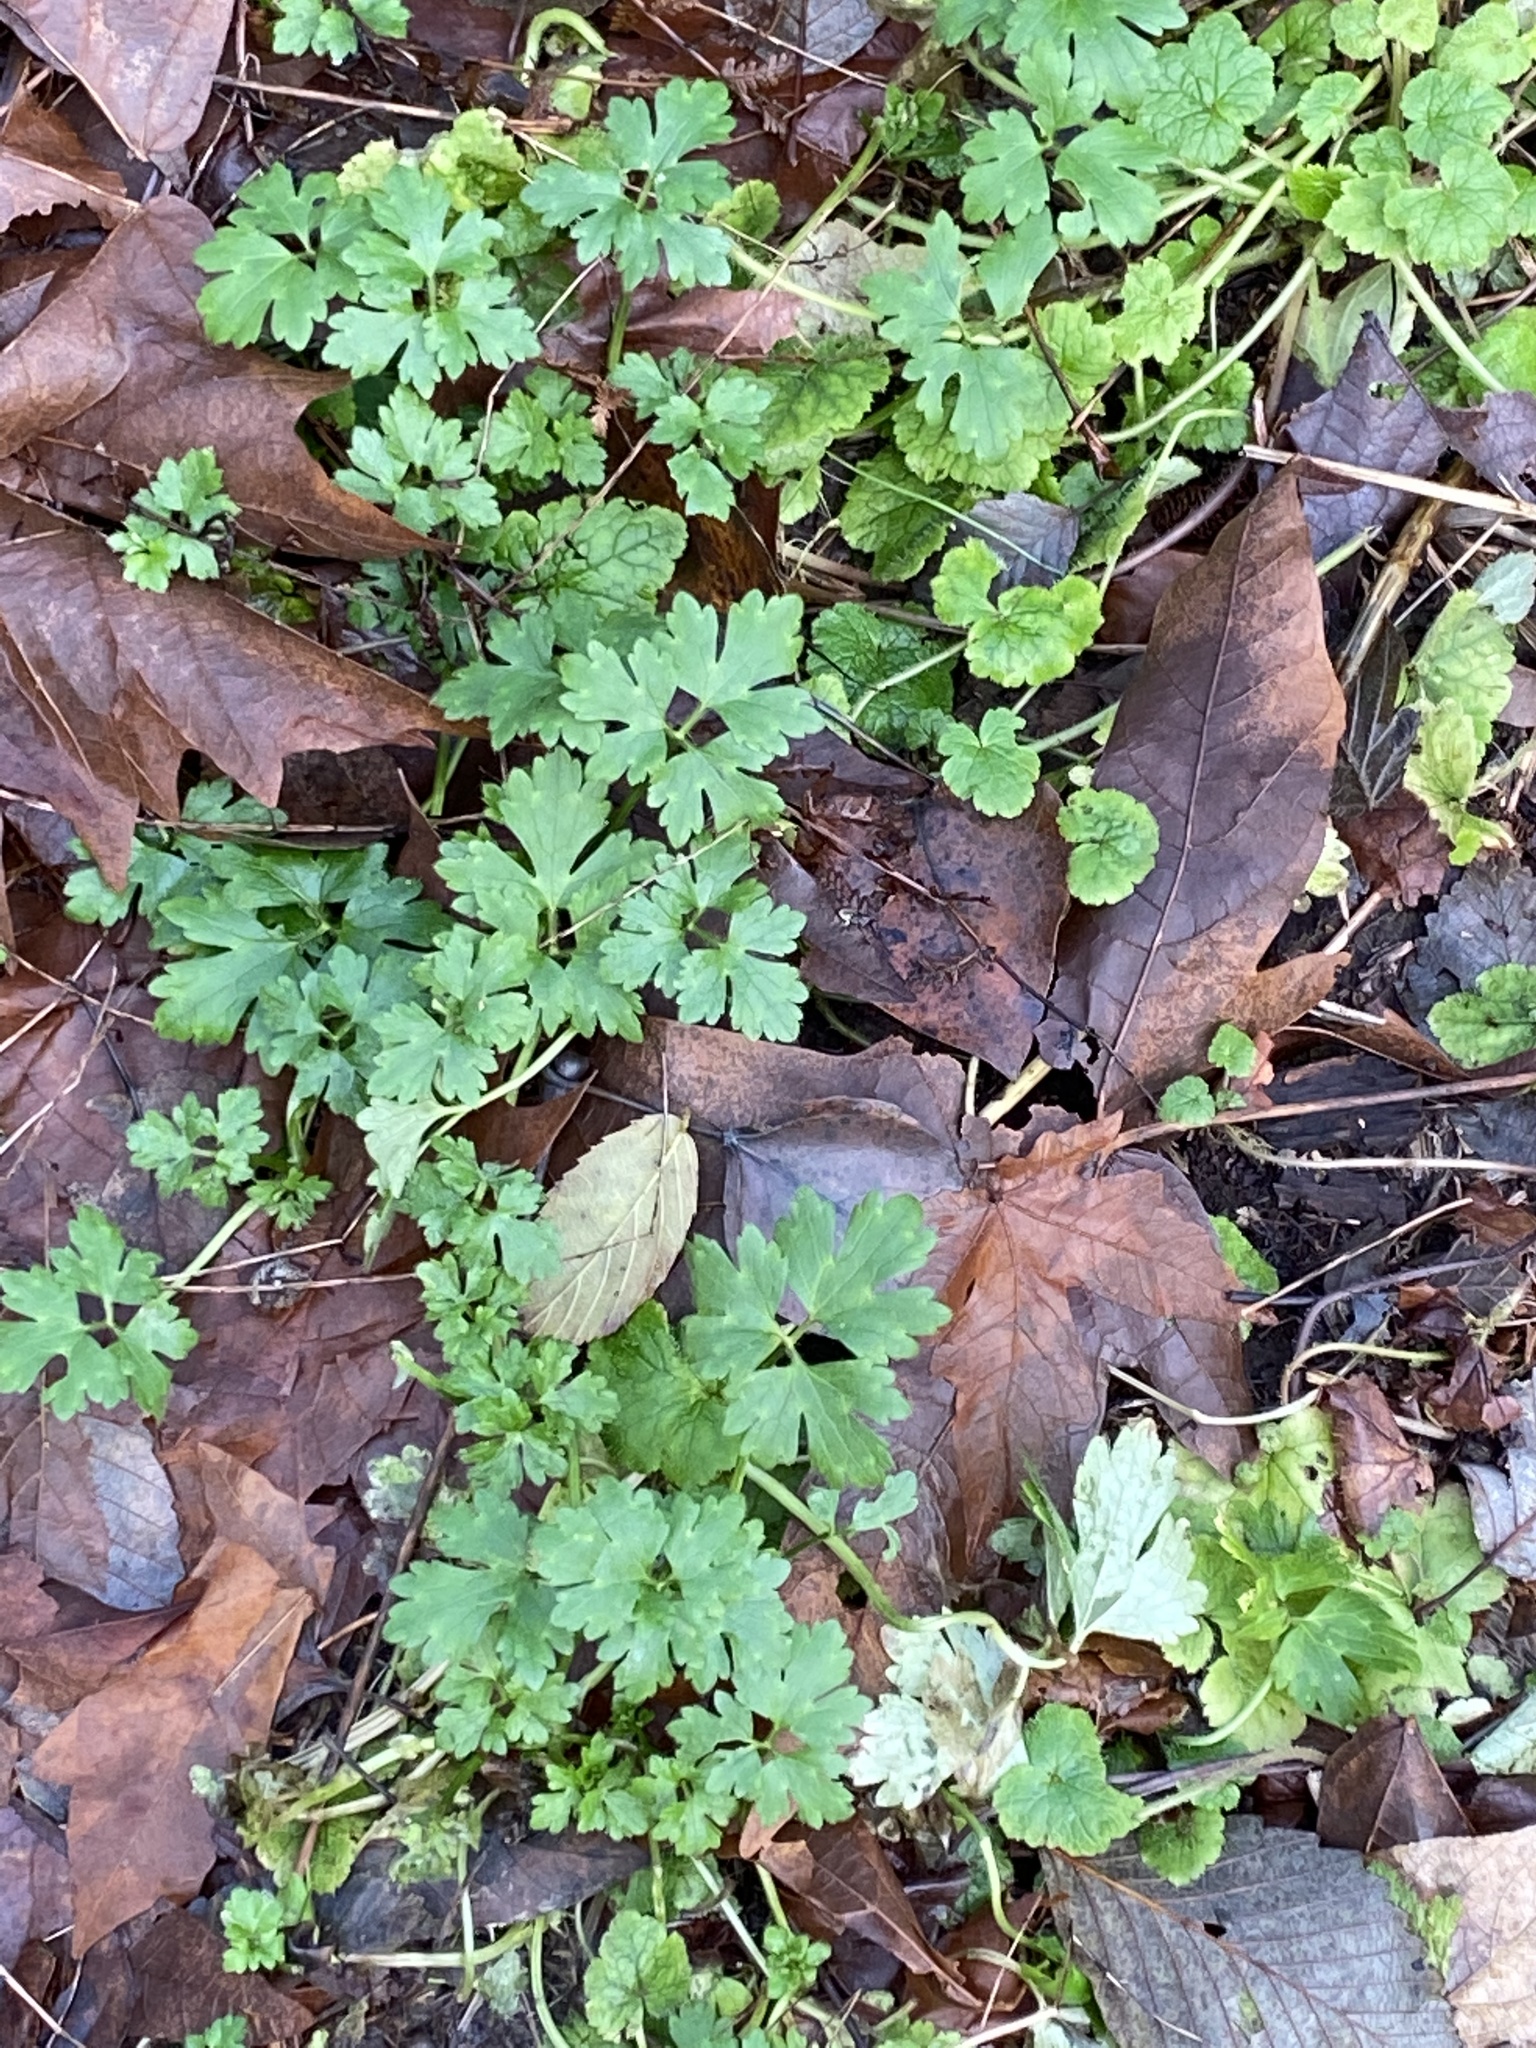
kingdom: Plantae
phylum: Tracheophyta
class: Magnoliopsida
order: Ranunculales
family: Ranunculaceae
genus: Ranunculus
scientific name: Ranunculus repens
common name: Creeping buttercup
